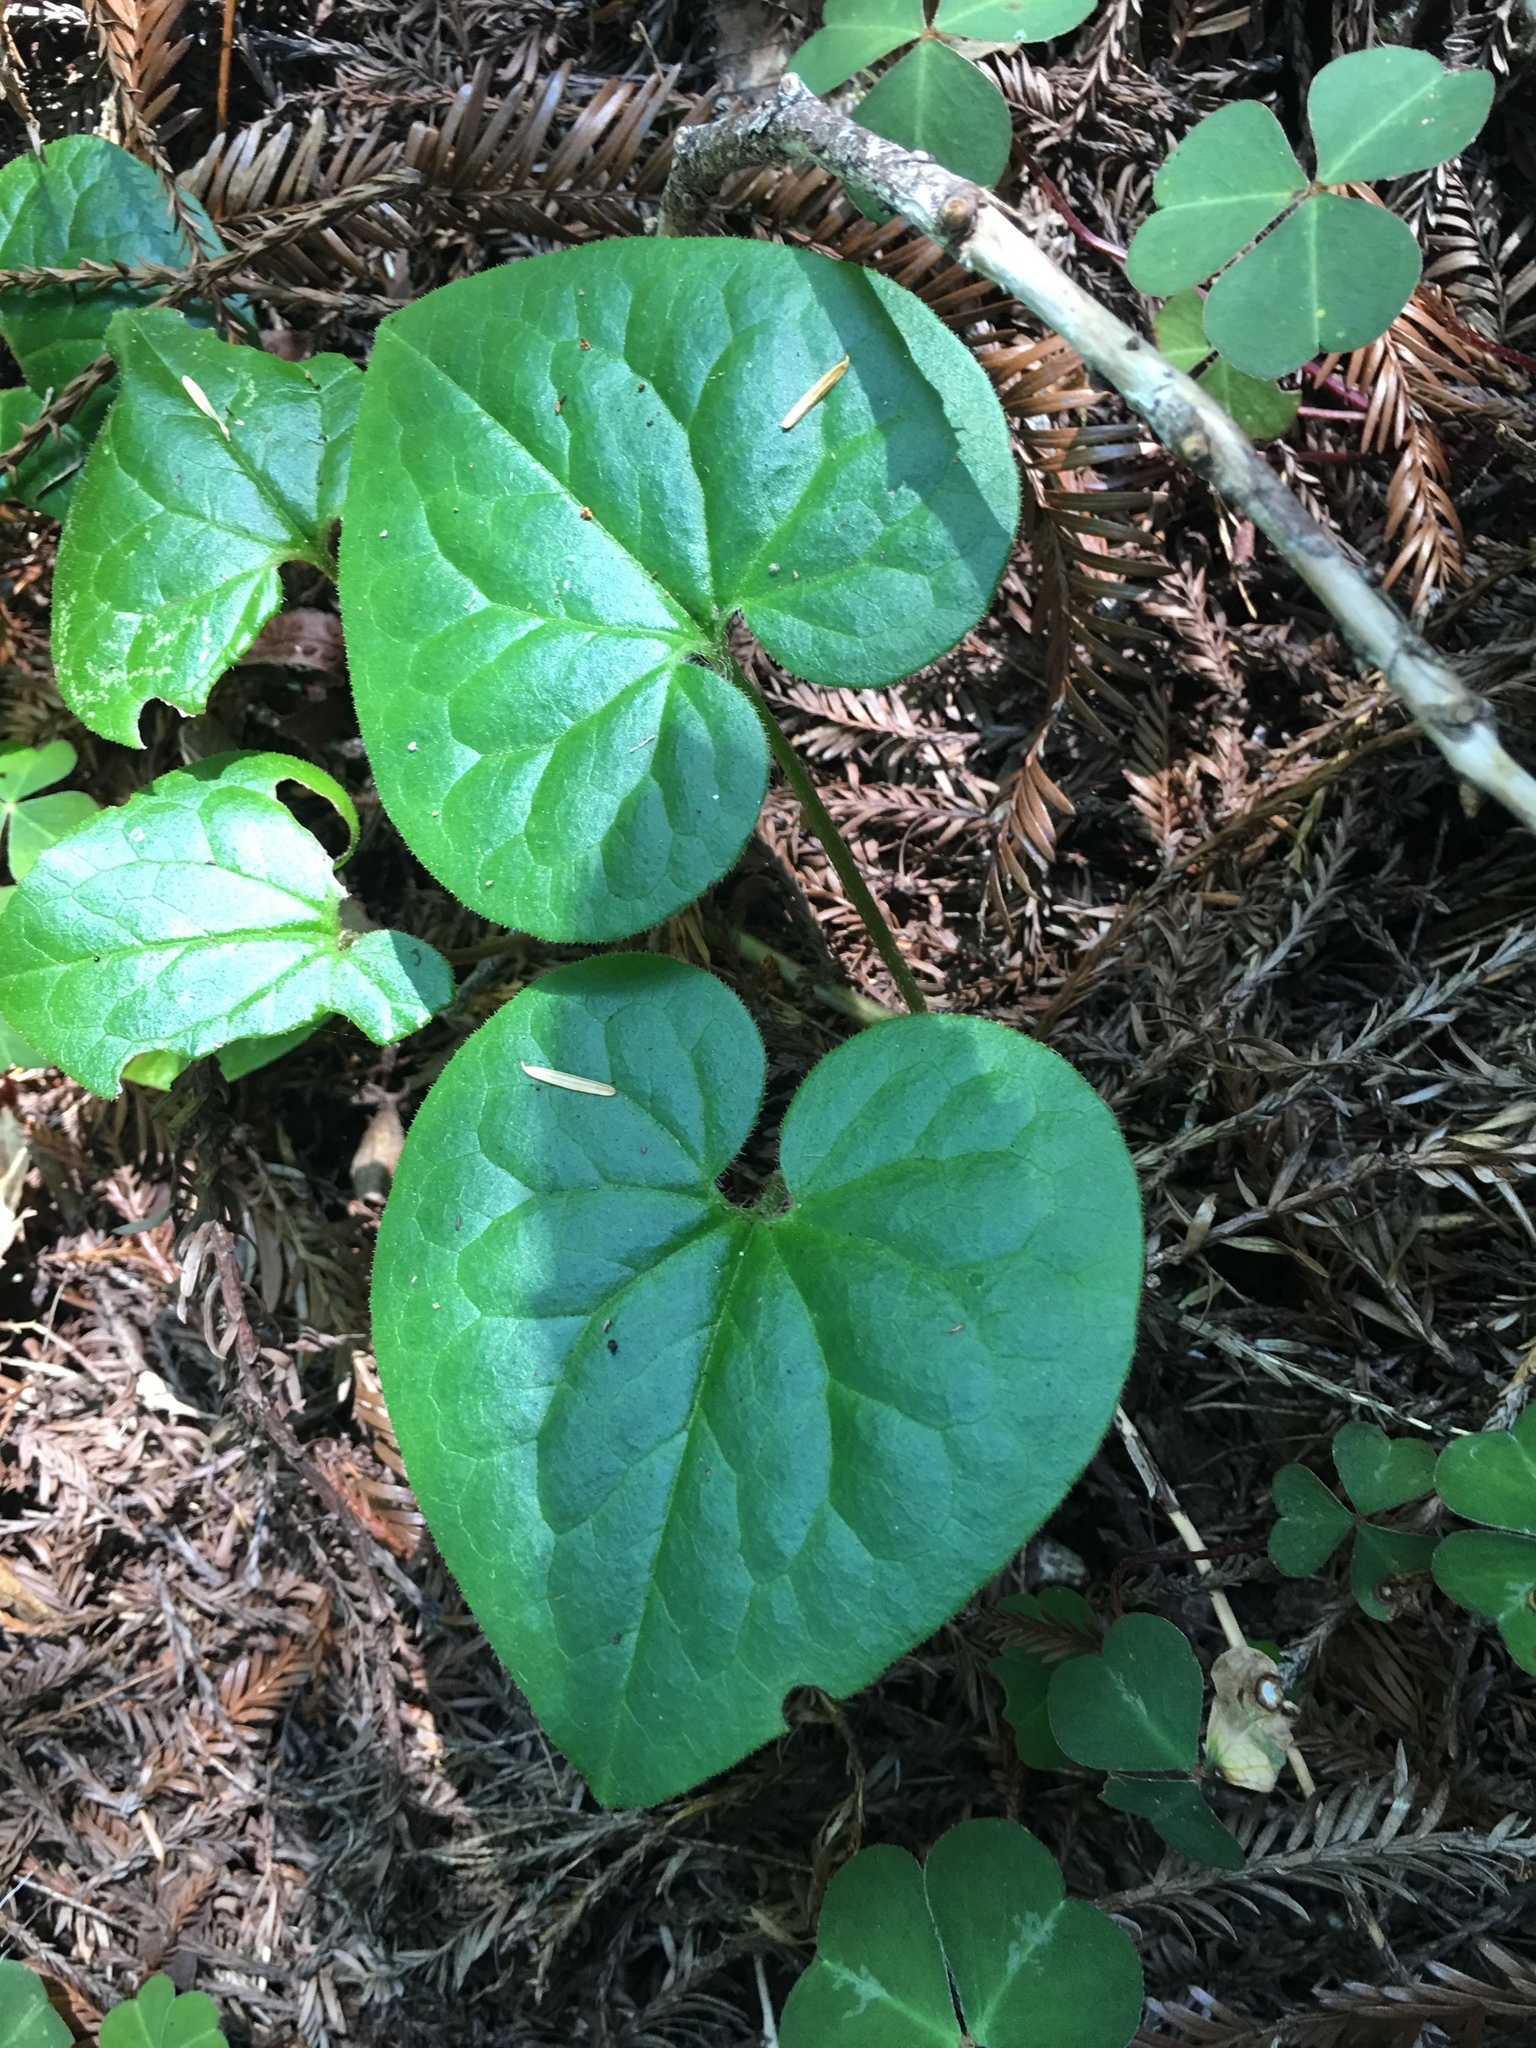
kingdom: Plantae
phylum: Tracheophyta
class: Magnoliopsida
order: Piperales
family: Aristolochiaceae
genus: Asarum
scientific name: Asarum caudatum
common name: Wild ginger
